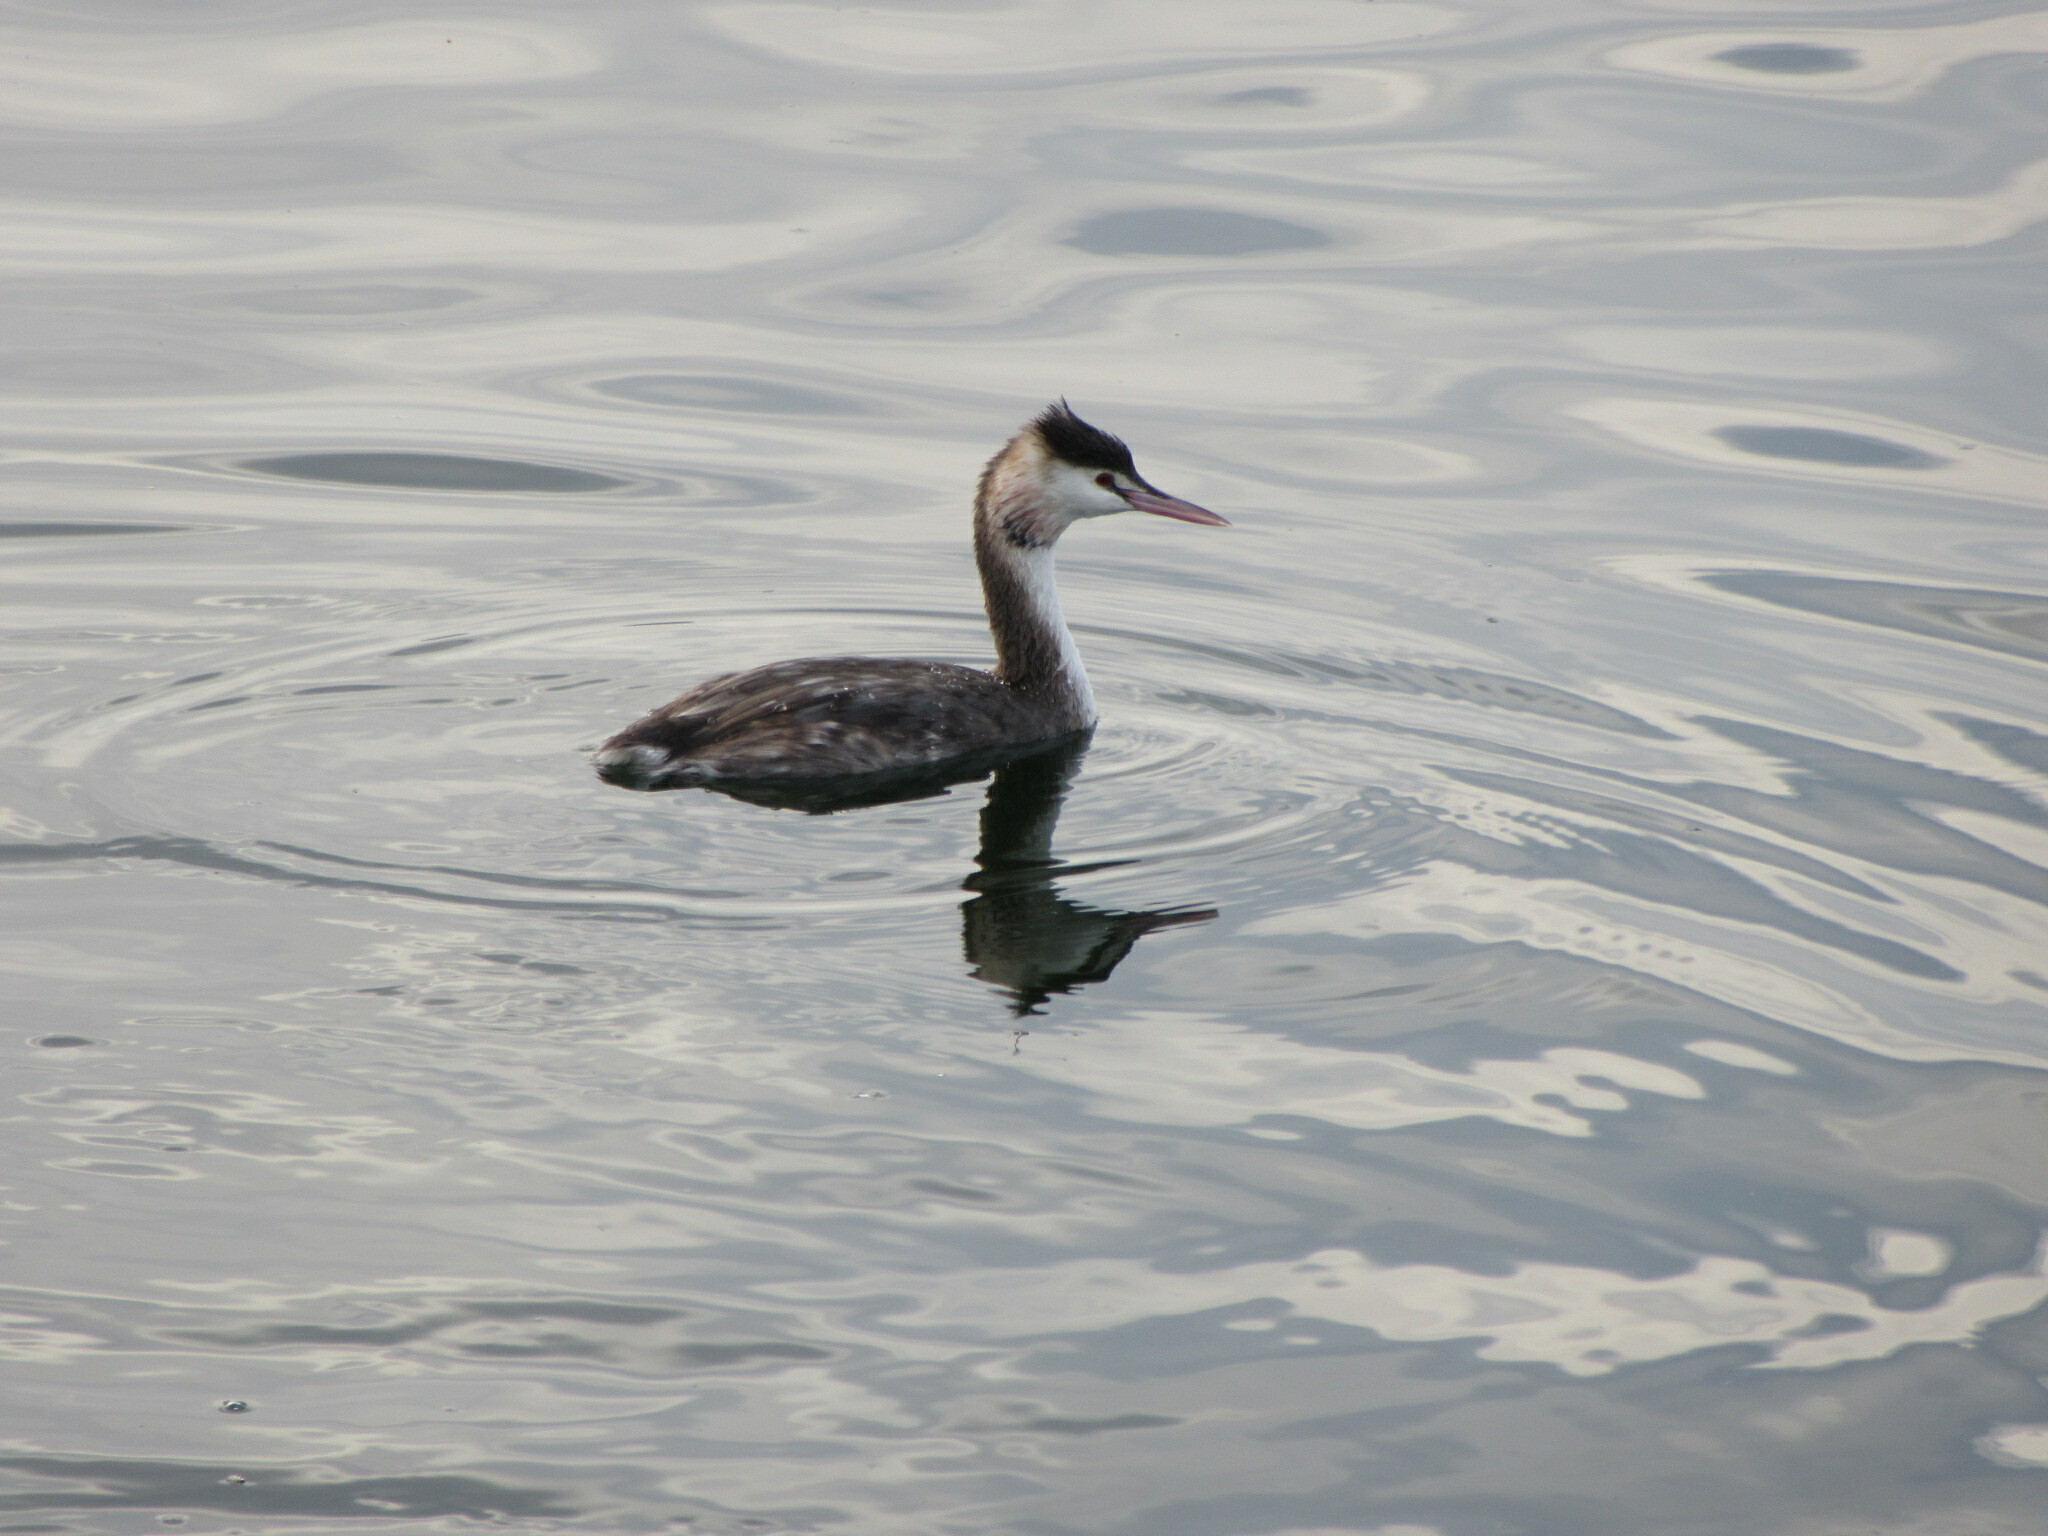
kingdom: Animalia
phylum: Chordata
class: Aves
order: Podicipediformes
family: Podicipedidae
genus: Podiceps
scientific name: Podiceps cristatus
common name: Great crested grebe
